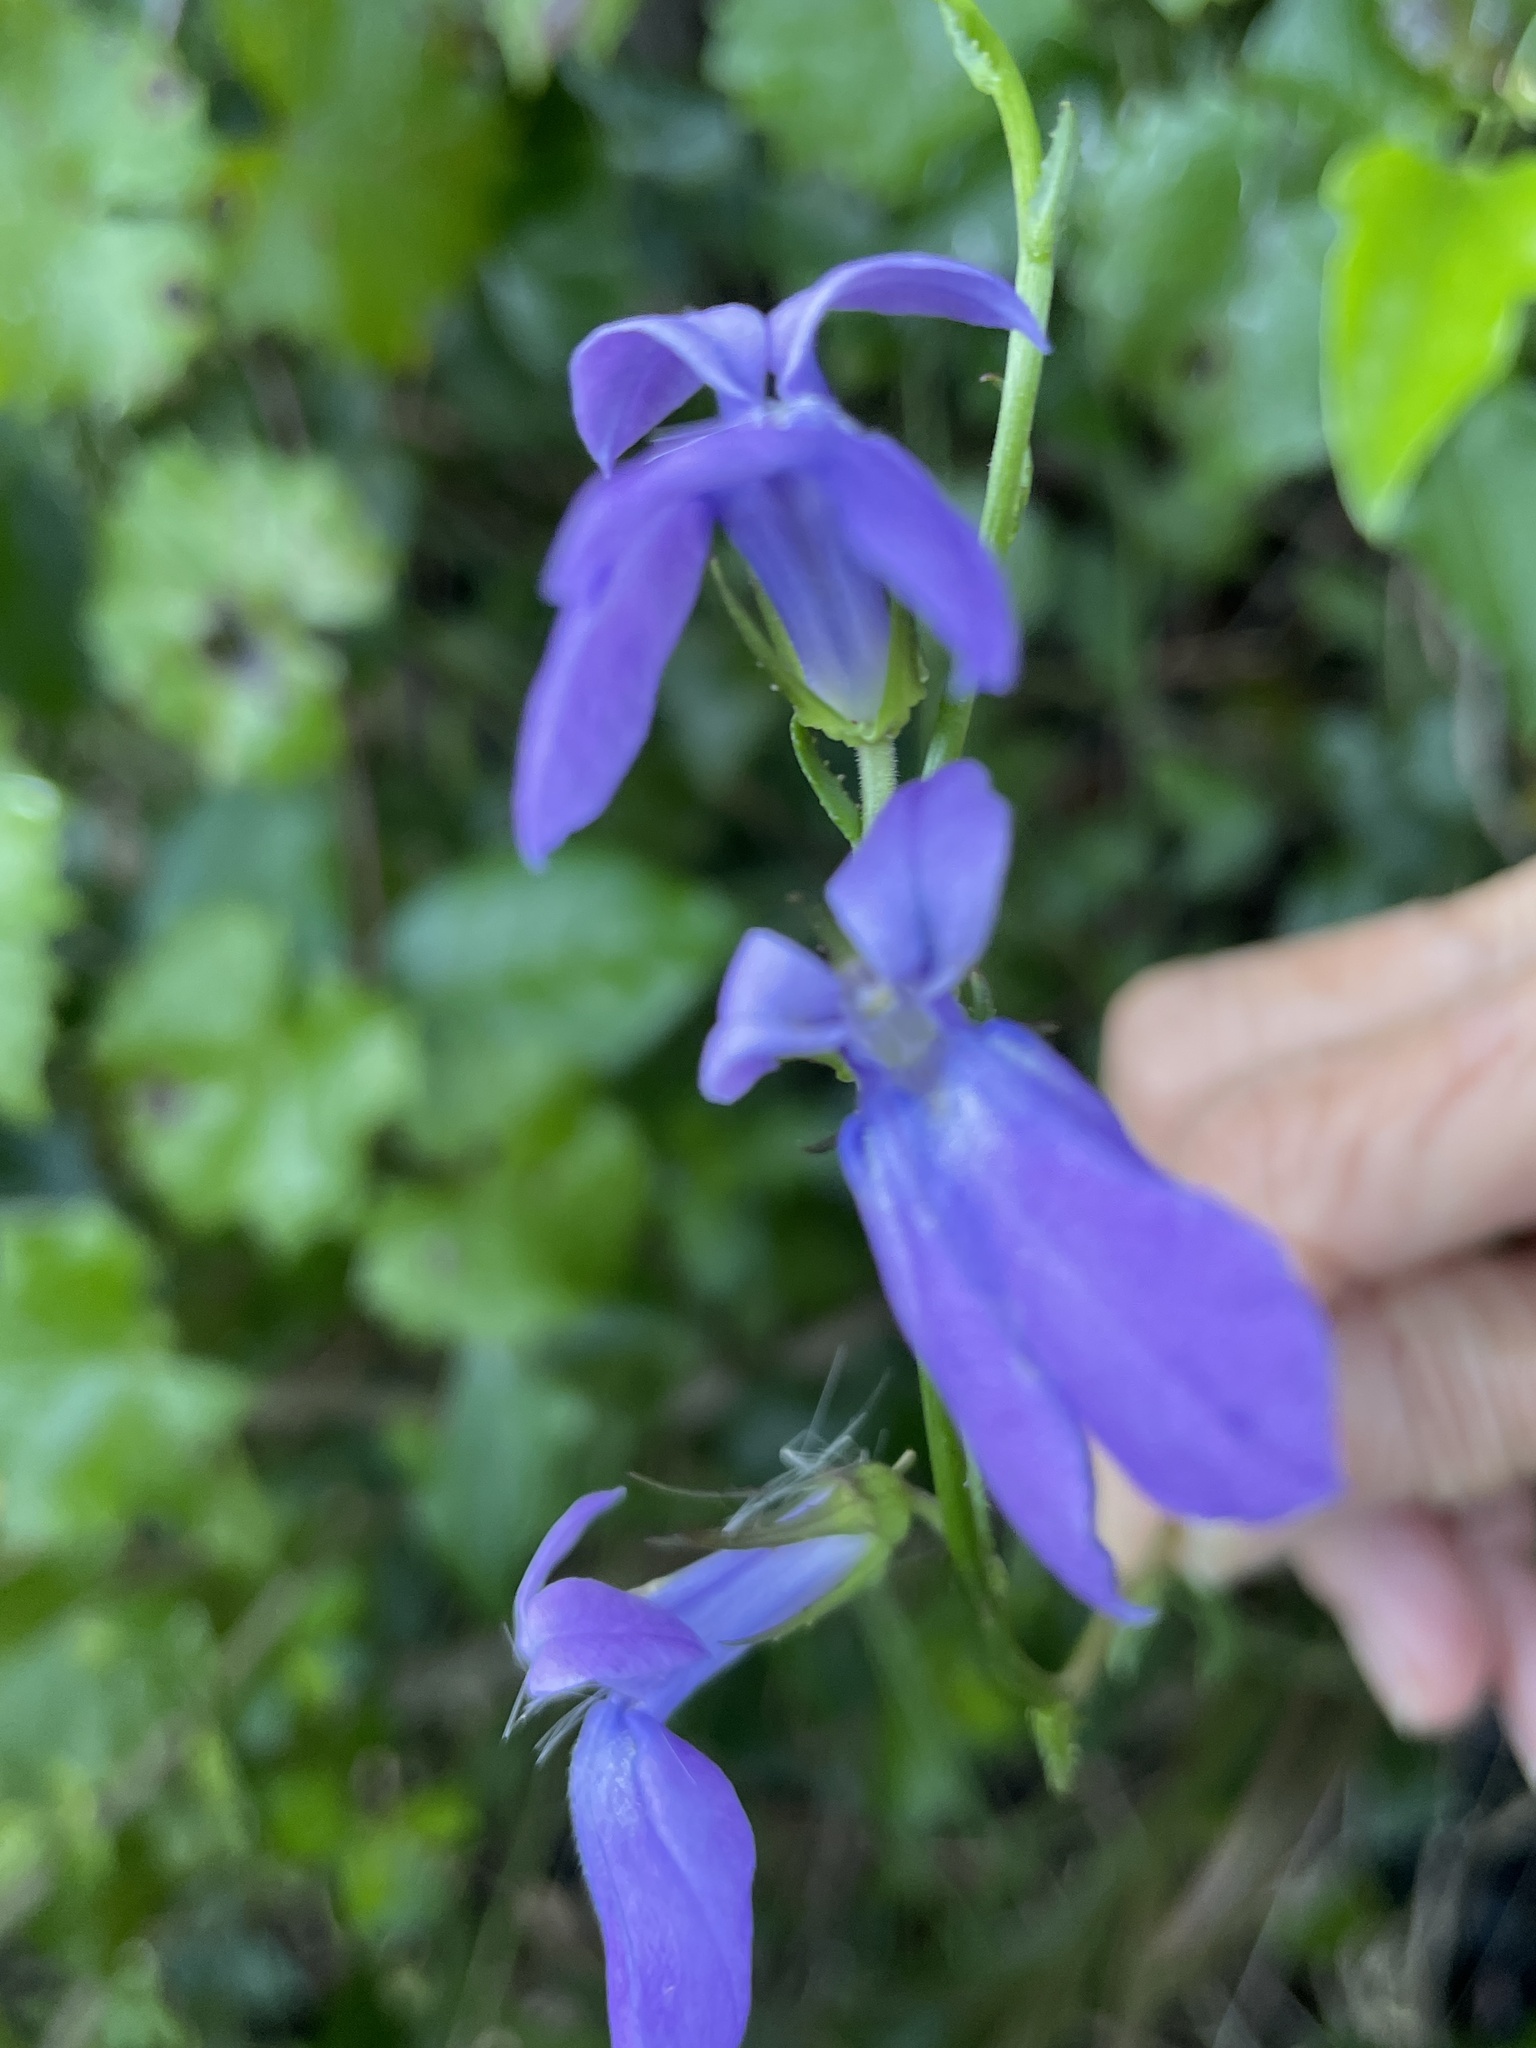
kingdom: Plantae
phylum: Tracheophyta
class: Magnoliopsida
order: Asterales
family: Campanulaceae
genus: Lobelia
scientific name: Lobelia glandulosa
